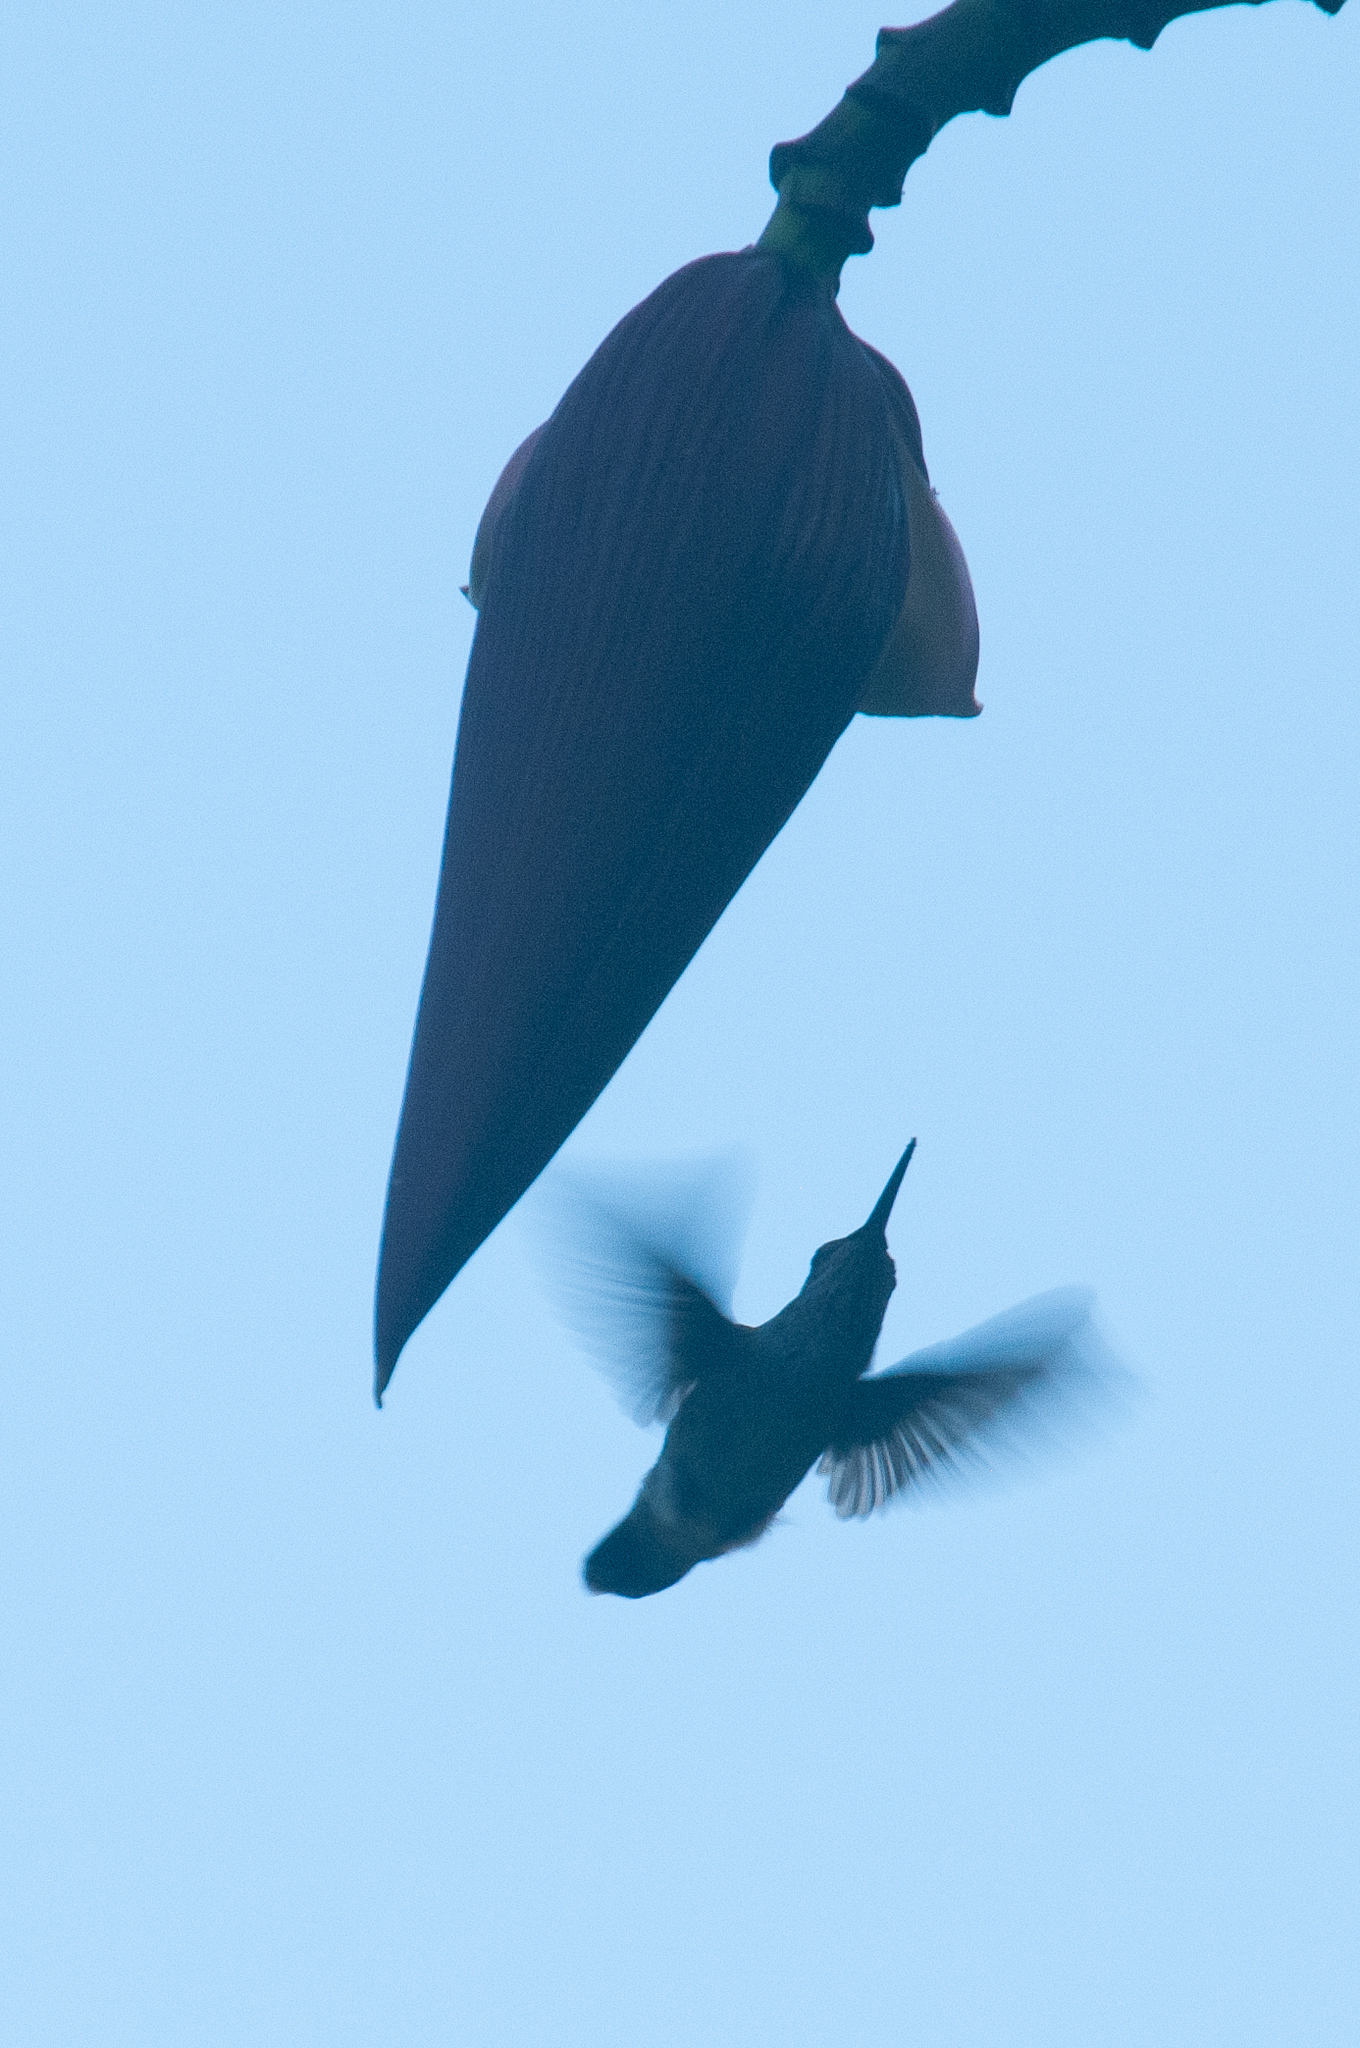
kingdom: Animalia
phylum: Chordata
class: Aves
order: Apodiformes
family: Trochilidae
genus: Calypte
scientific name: Calypte anna
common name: Anna's hummingbird
